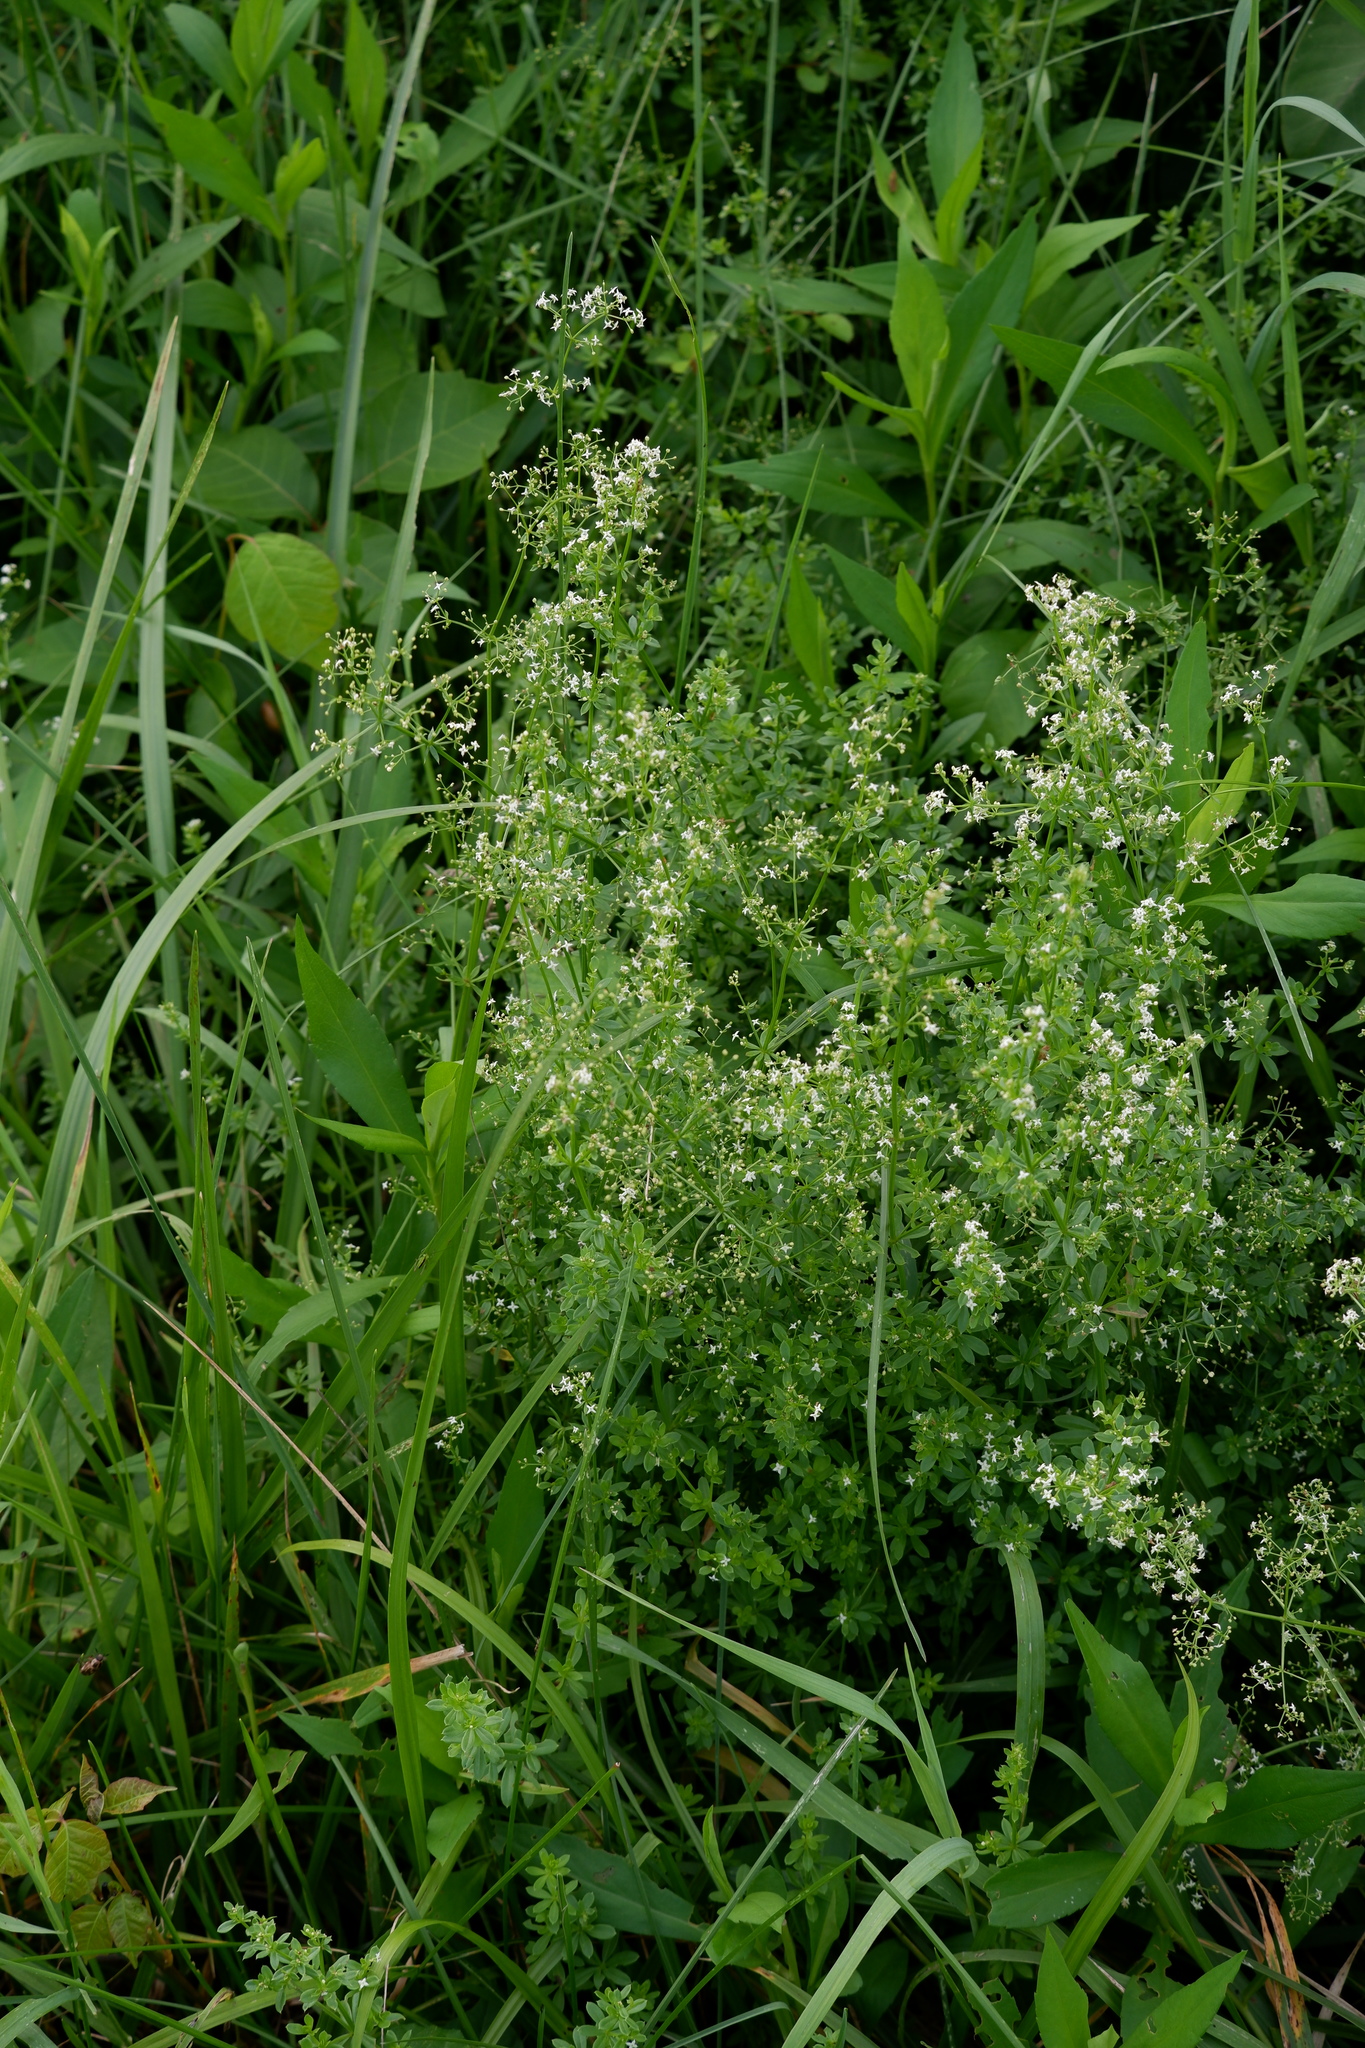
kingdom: Plantae
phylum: Tracheophyta
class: Magnoliopsida
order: Gentianales
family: Rubiaceae
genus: Galium
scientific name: Galium mollugo
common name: Hedge bedstraw
